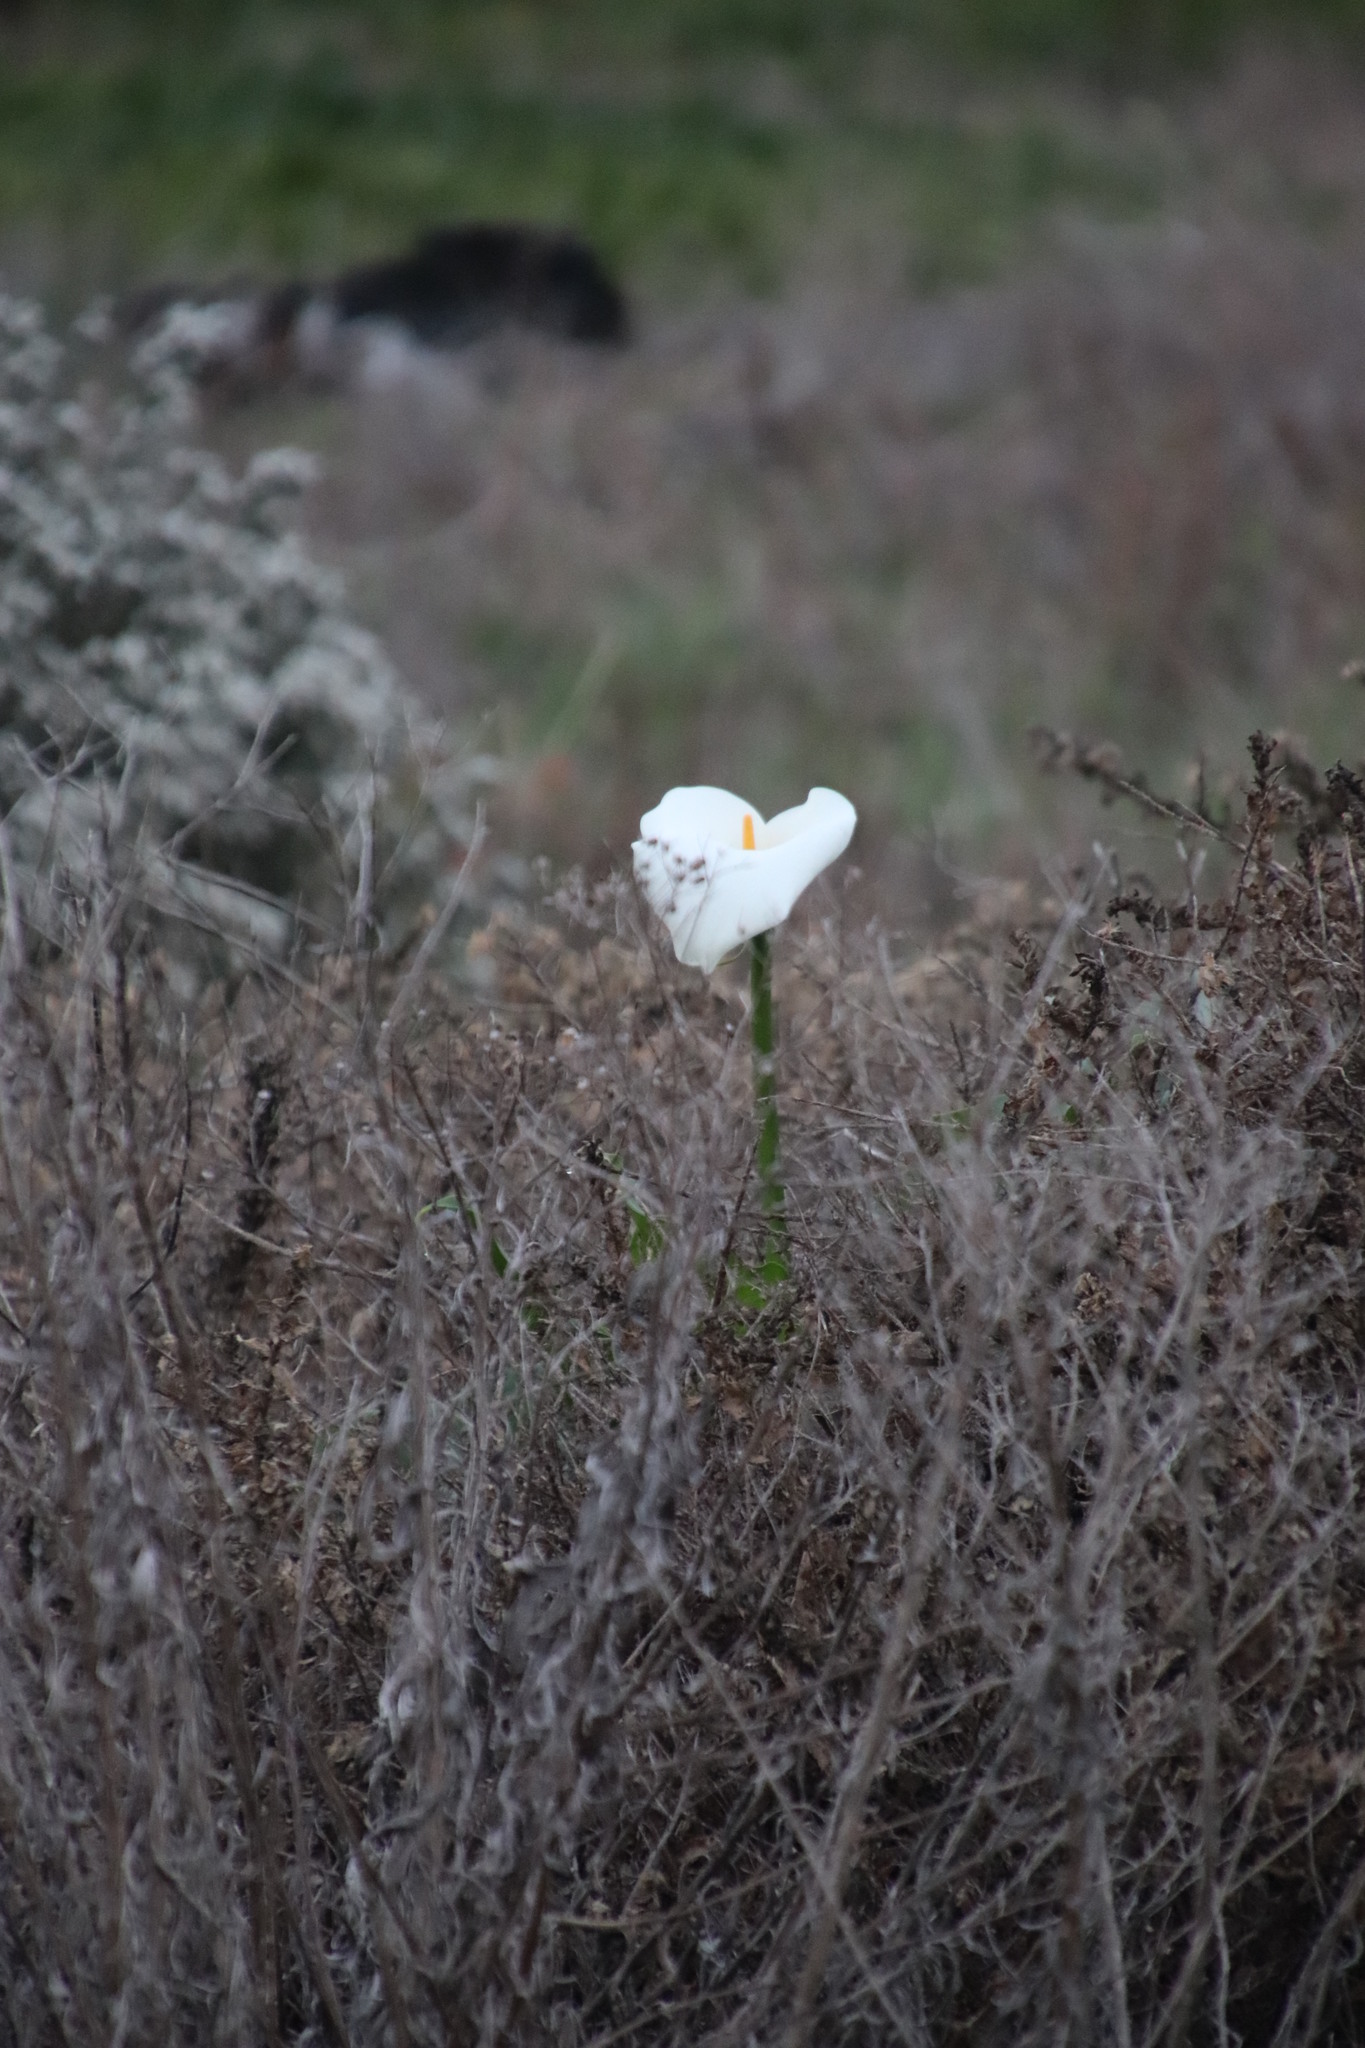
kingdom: Plantae
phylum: Tracheophyta
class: Liliopsida
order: Alismatales
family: Araceae
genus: Zantedeschia
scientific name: Zantedeschia aethiopica
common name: Altar-lily
